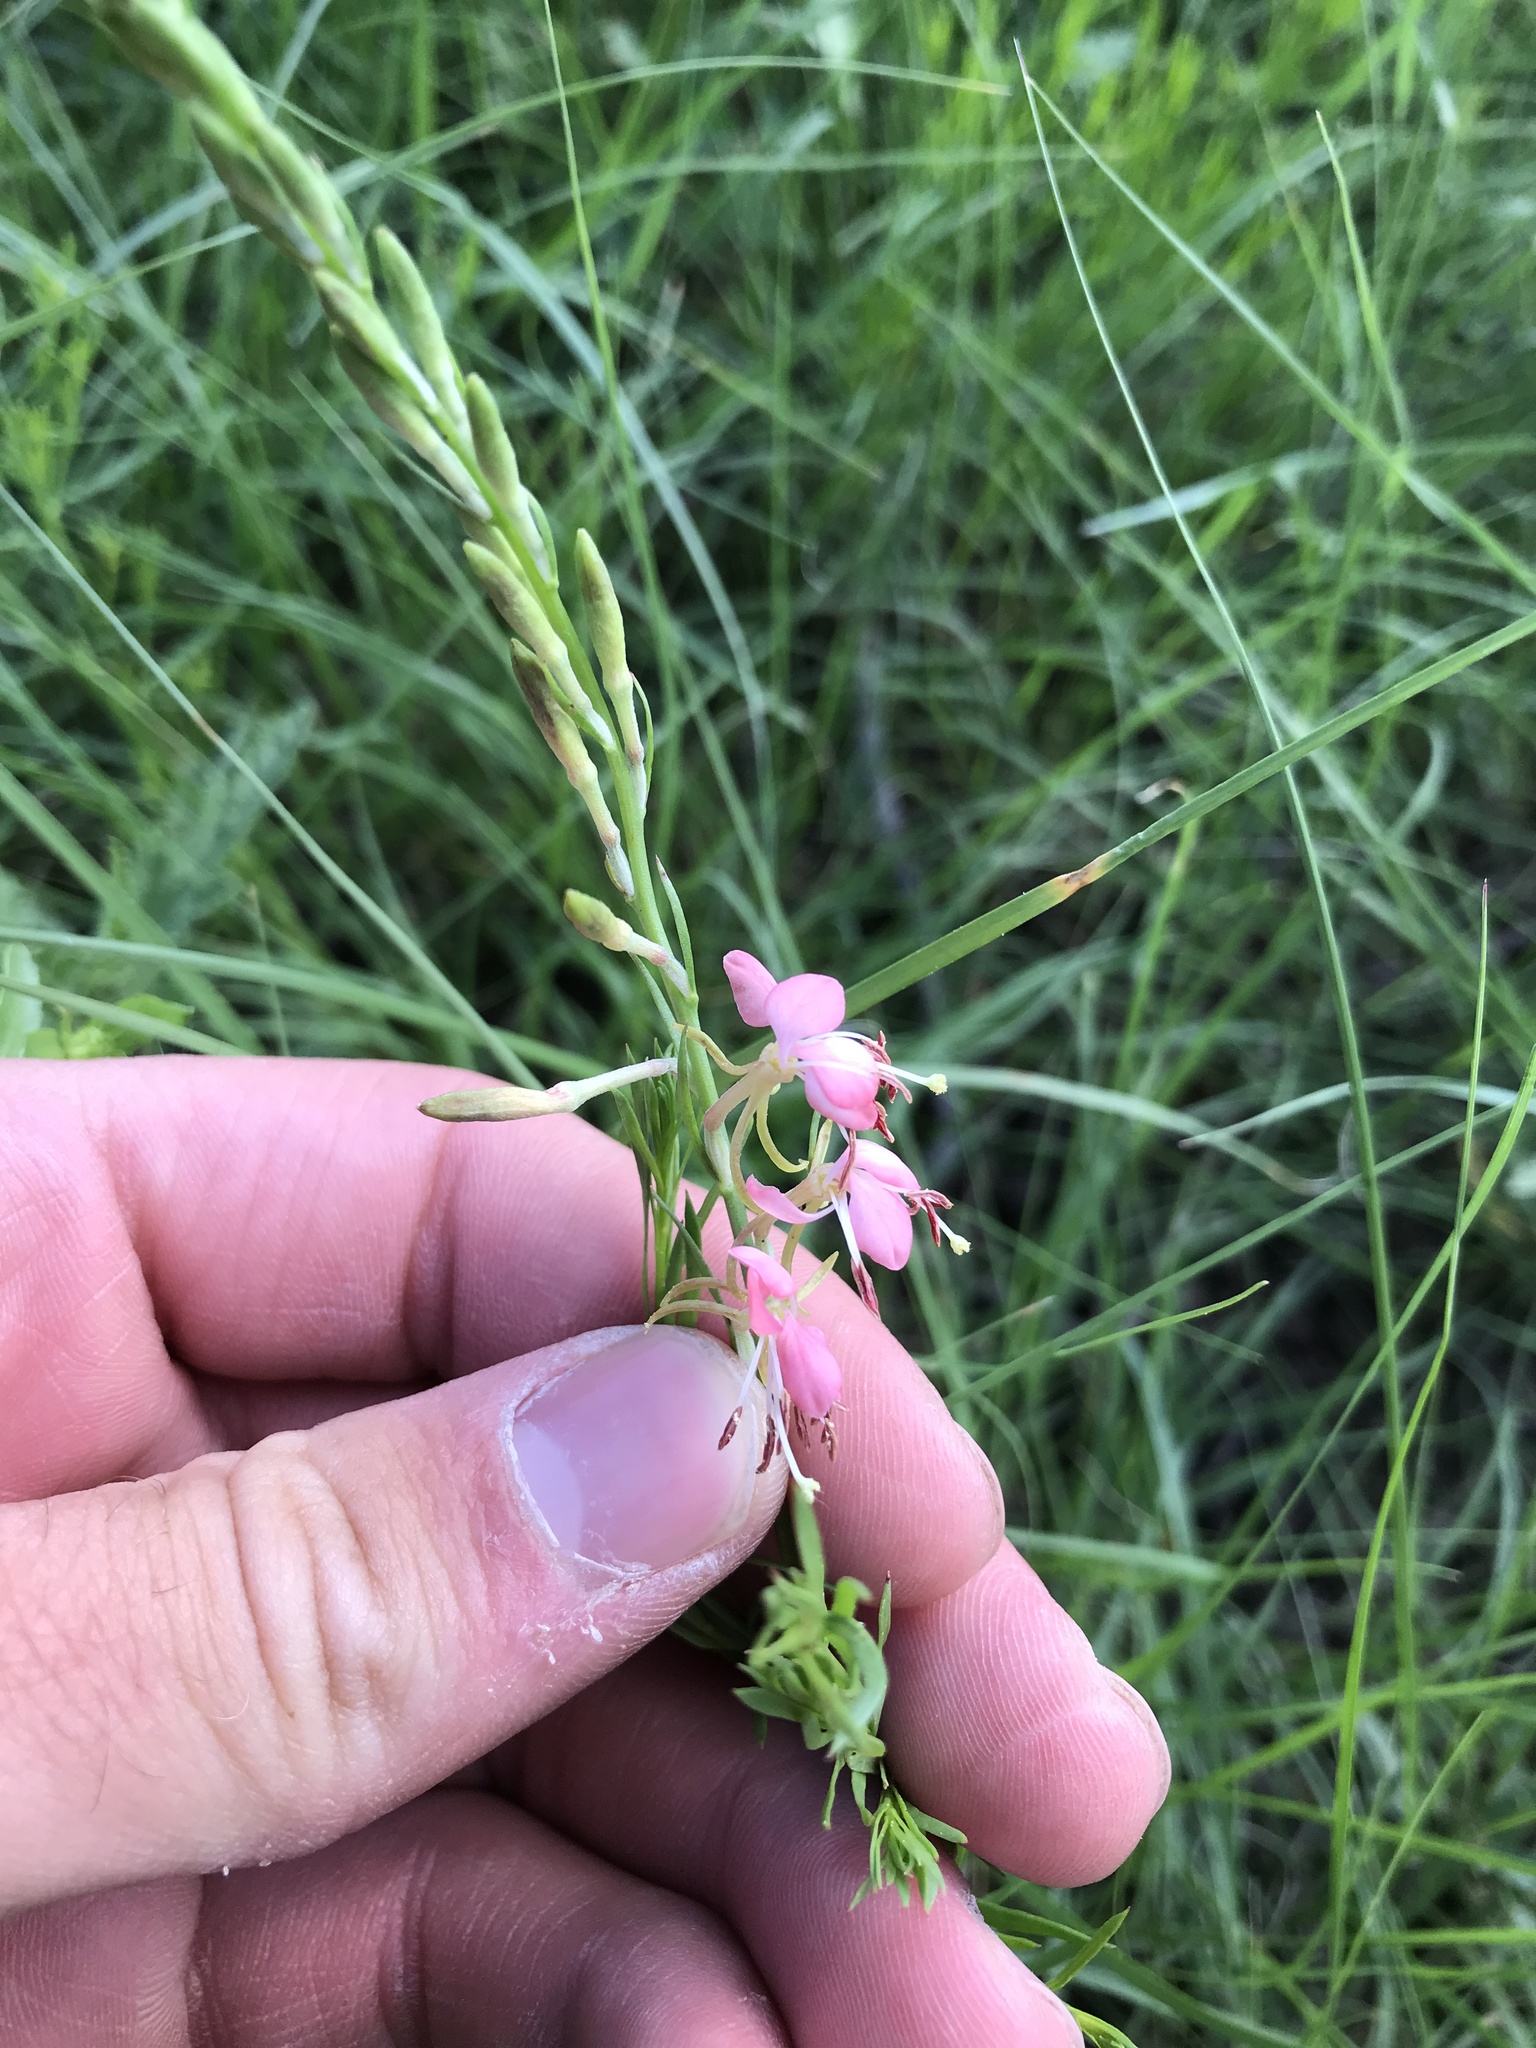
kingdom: Plantae
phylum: Tracheophyta
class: Magnoliopsida
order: Myrtales
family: Onagraceae
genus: Oenothera
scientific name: Oenothera suffrutescens
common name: Scarlet beeblossom
